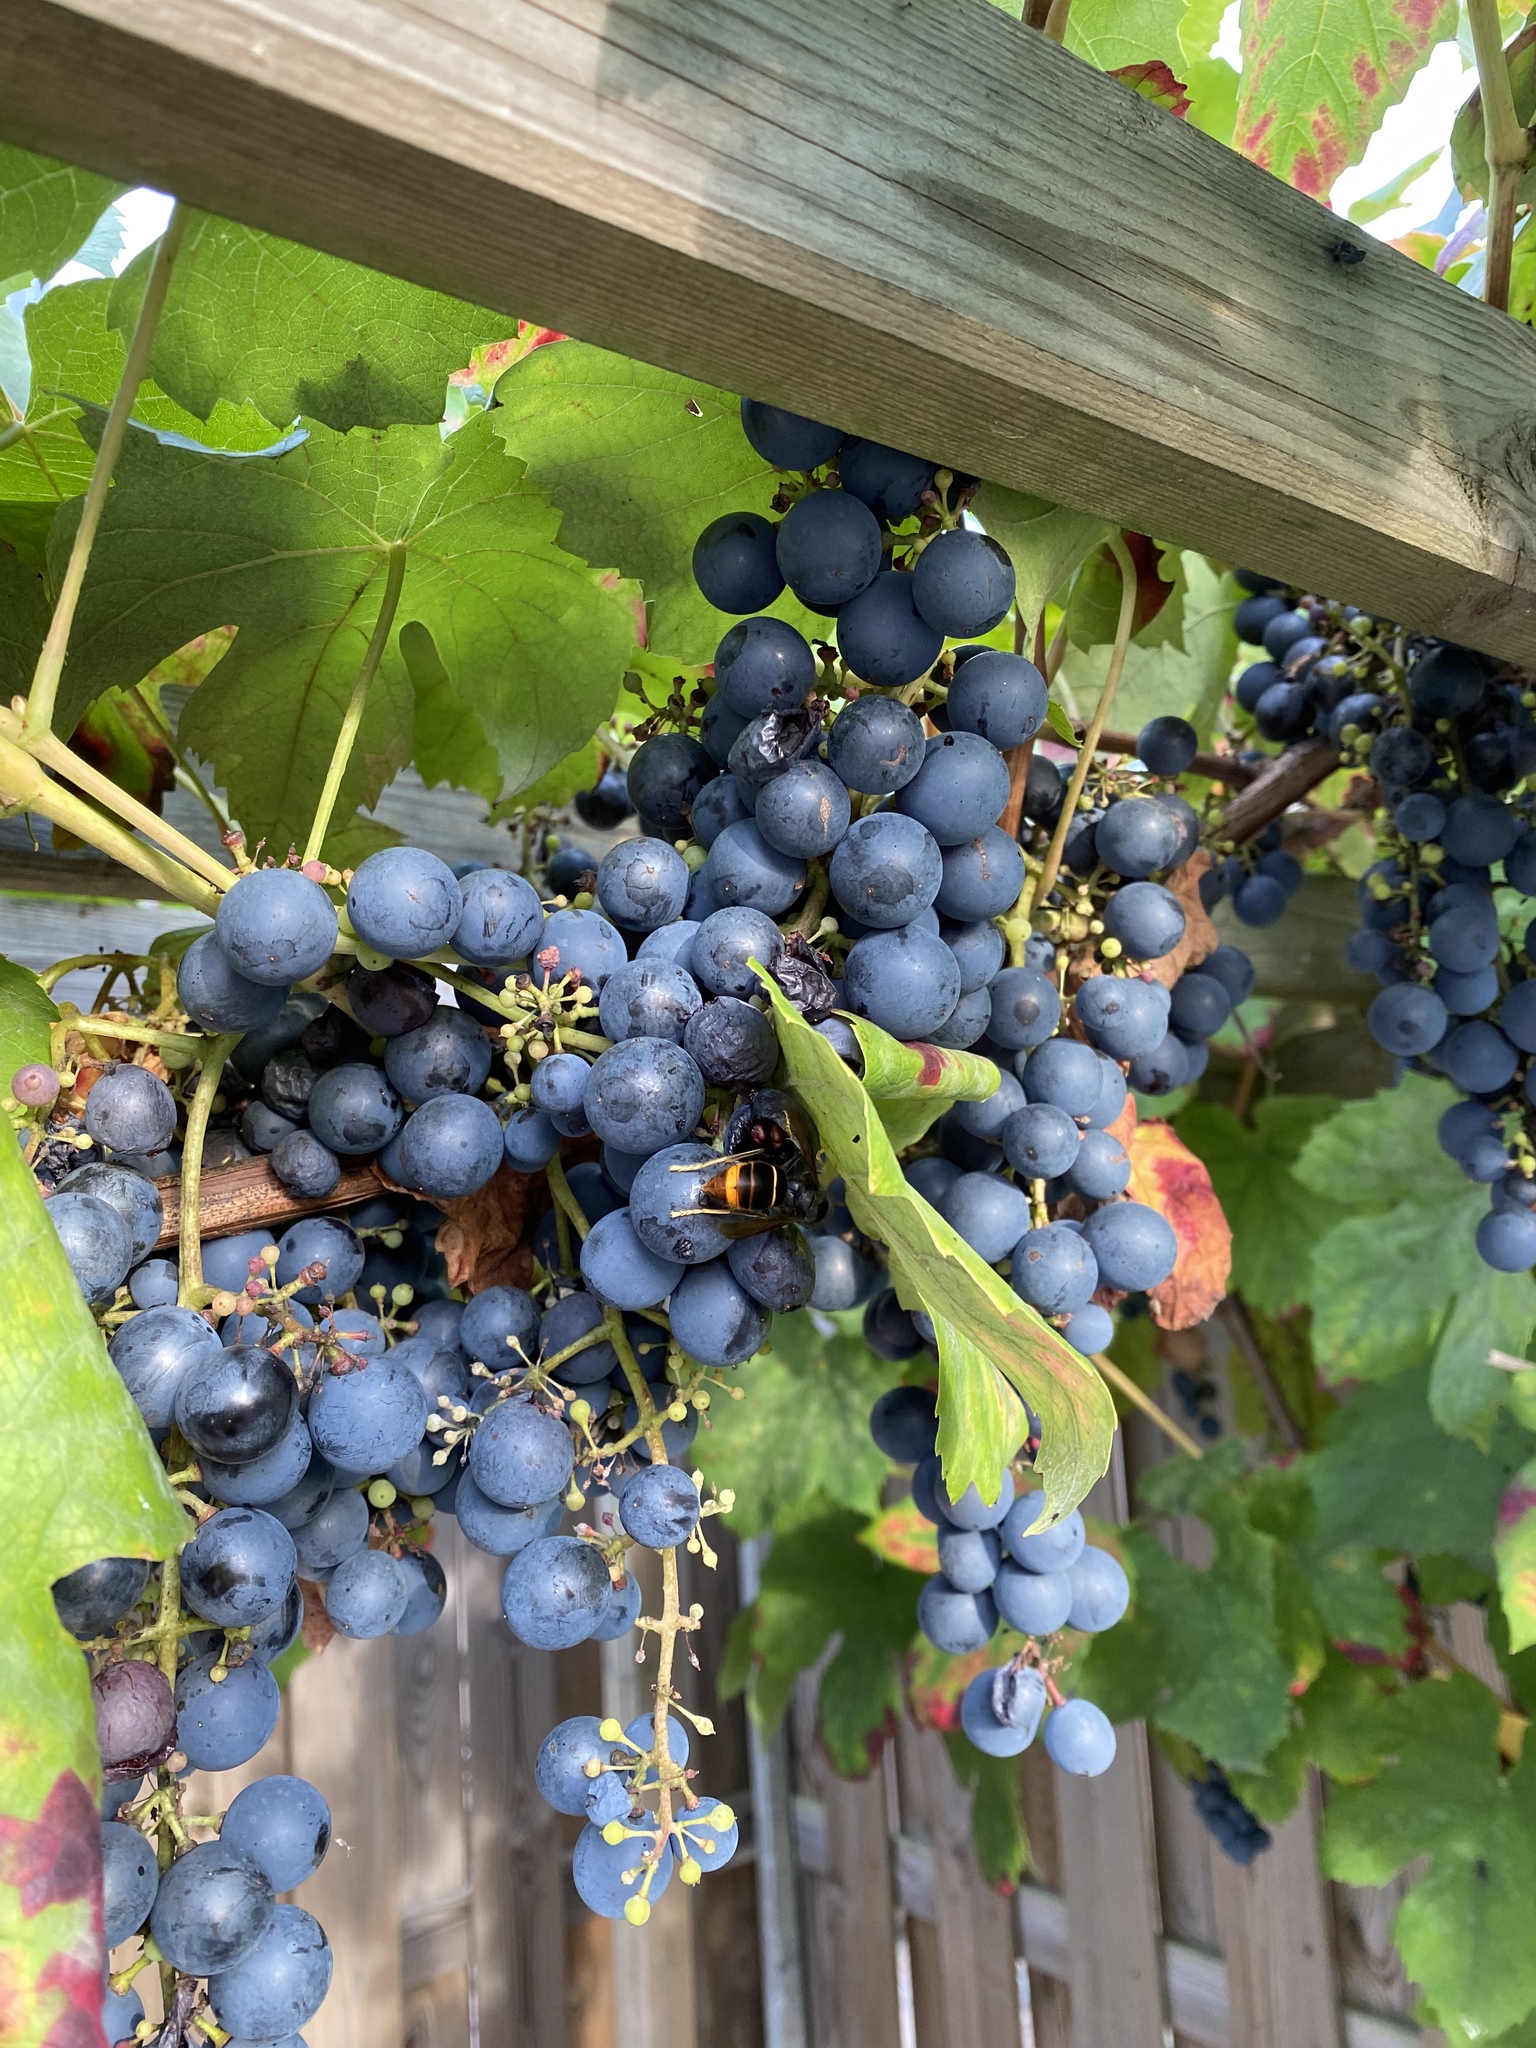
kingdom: Animalia
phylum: Arthropoda
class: Insecta
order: Hymenoptera
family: Vespidae
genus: Vespa
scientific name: Vespa velutina
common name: Asian hornet
